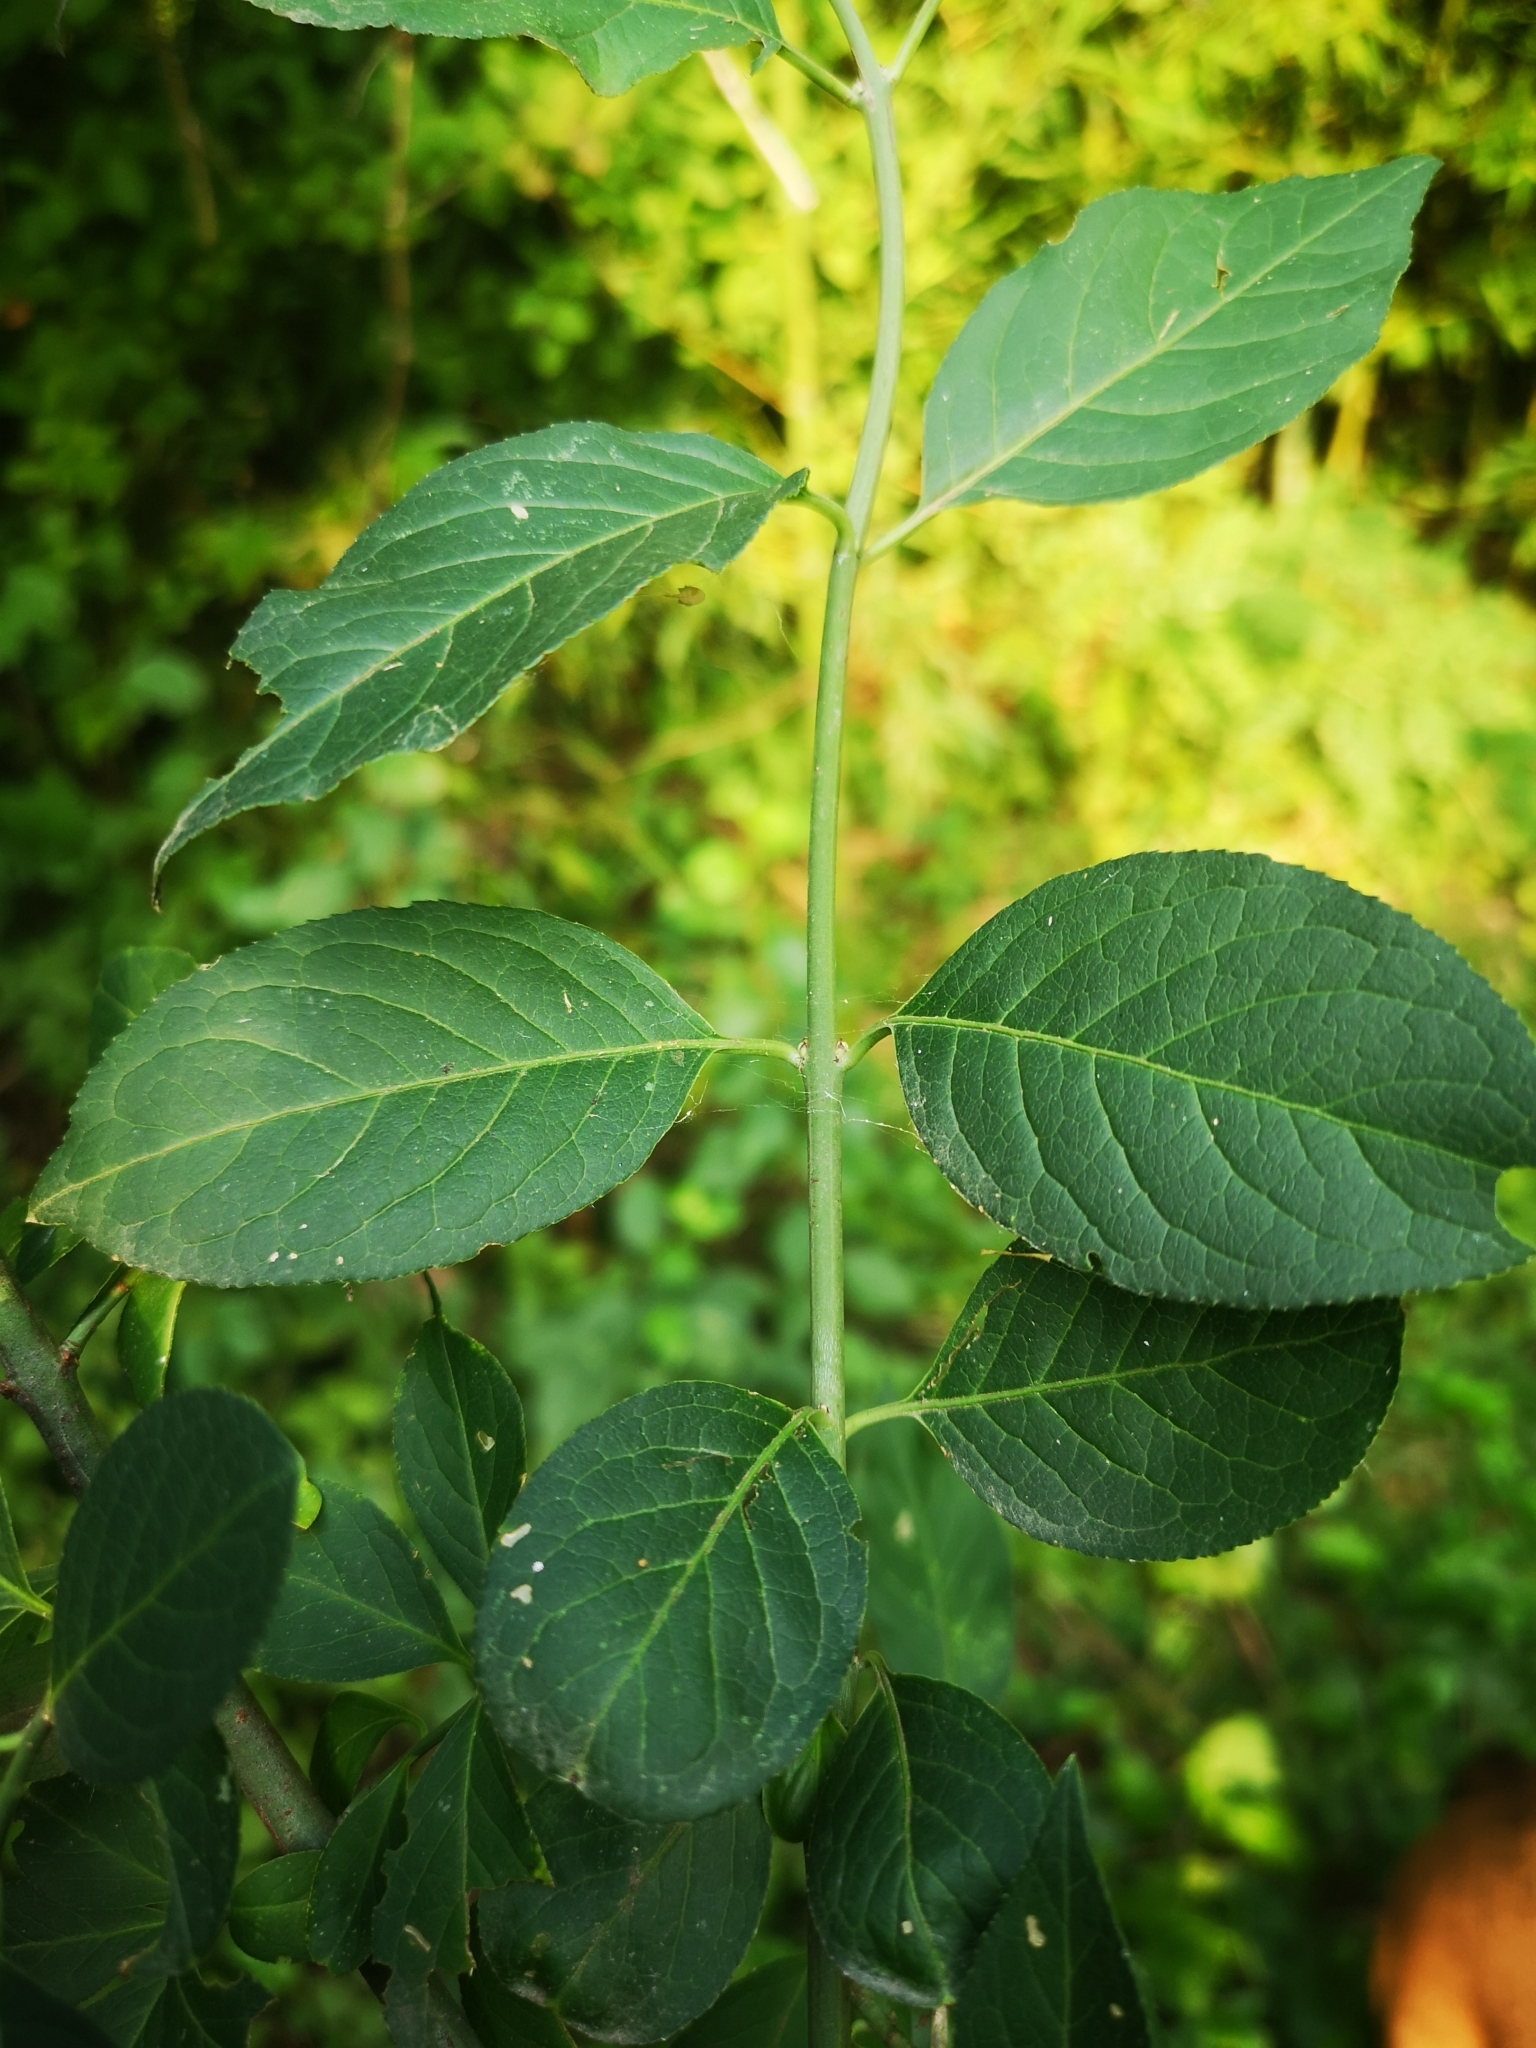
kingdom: Plantae
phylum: Tracheophyta
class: Magnoliopsida
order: Celastrales
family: Celastraceae
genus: Euonymus
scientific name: Euonymus europaeus
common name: Spindle
